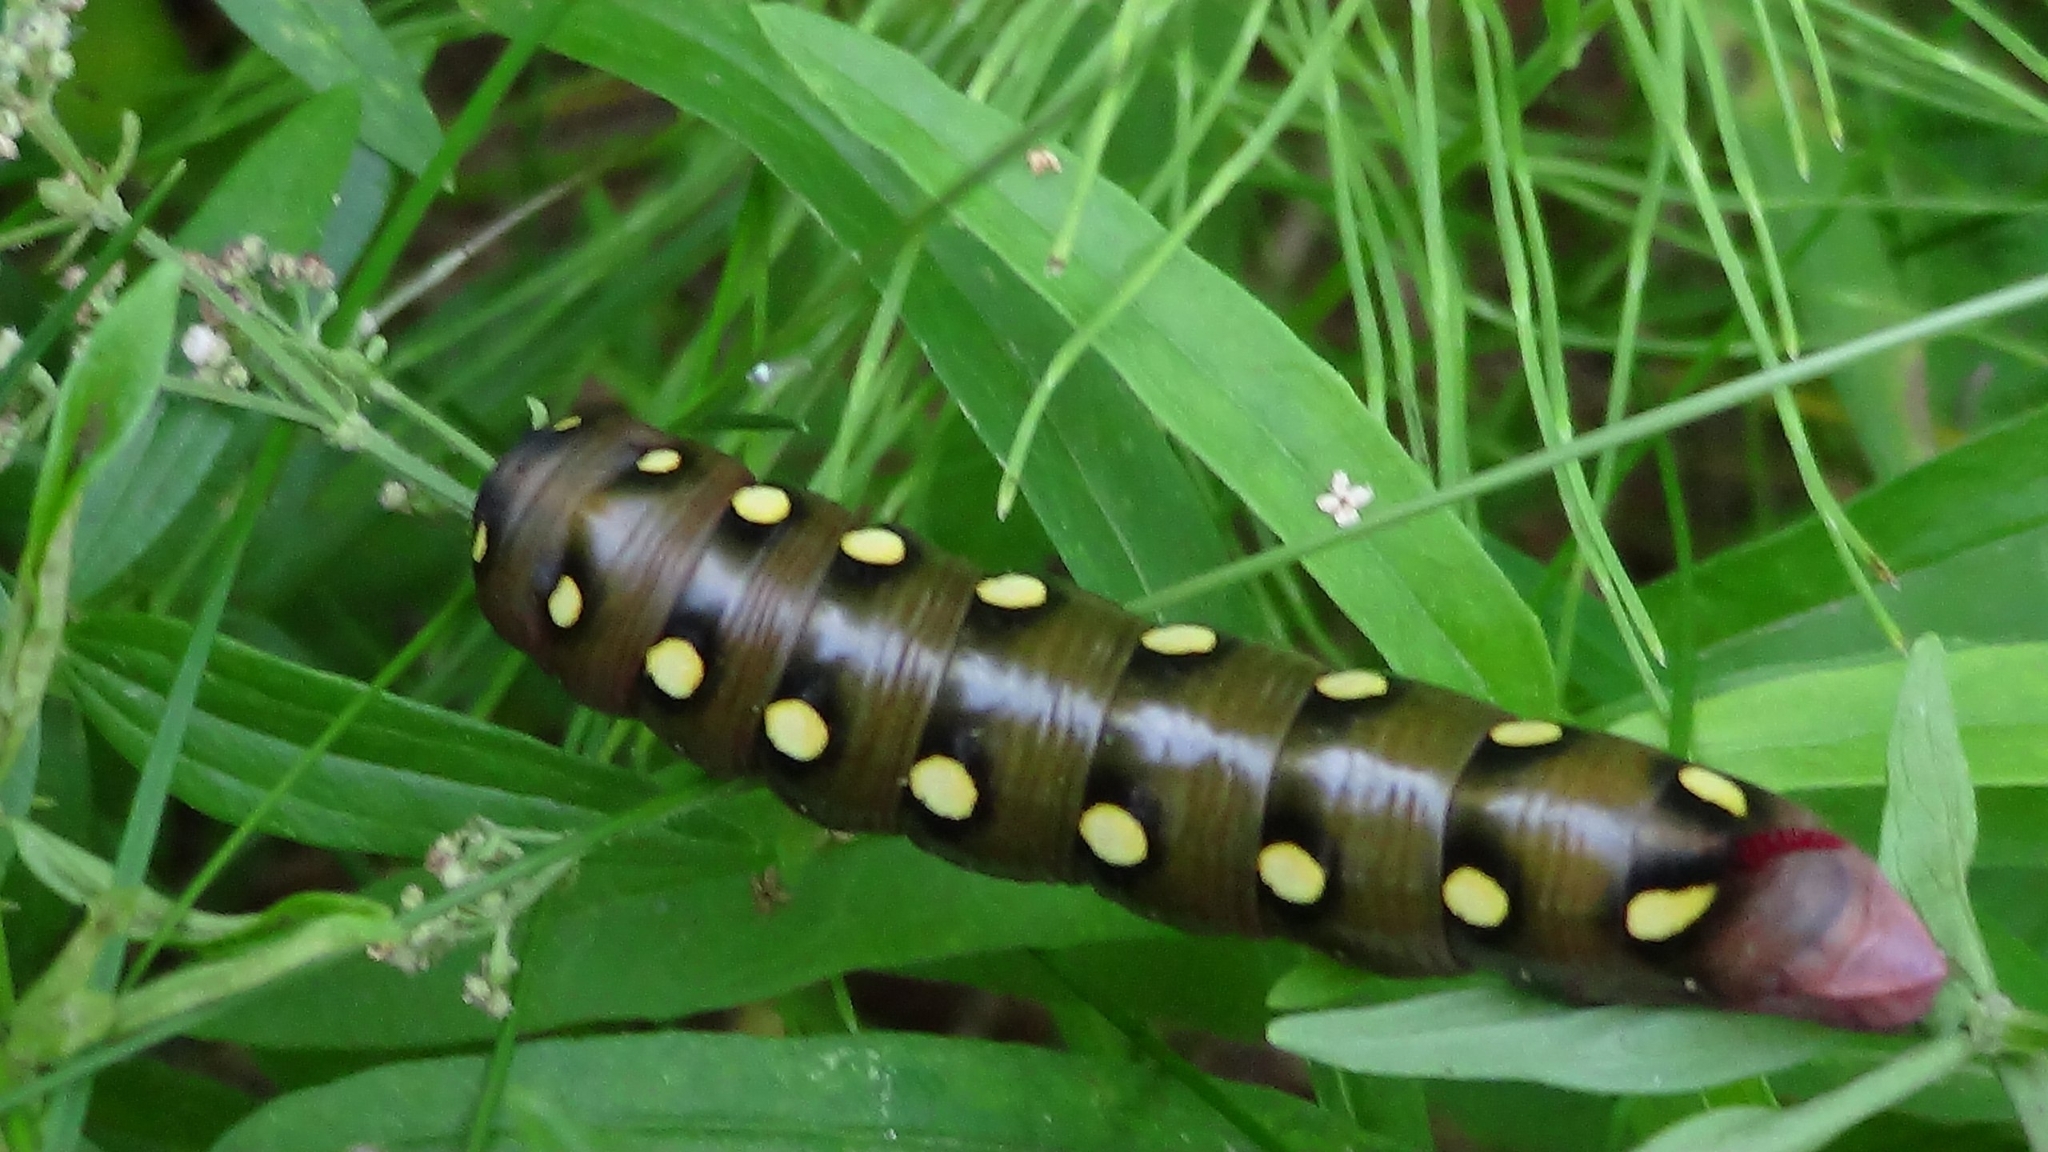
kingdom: Animalia
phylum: Arthropoda
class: Insecta
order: Lepidoptera
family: Sphingidae
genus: Hyles
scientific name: Hyles gallii
